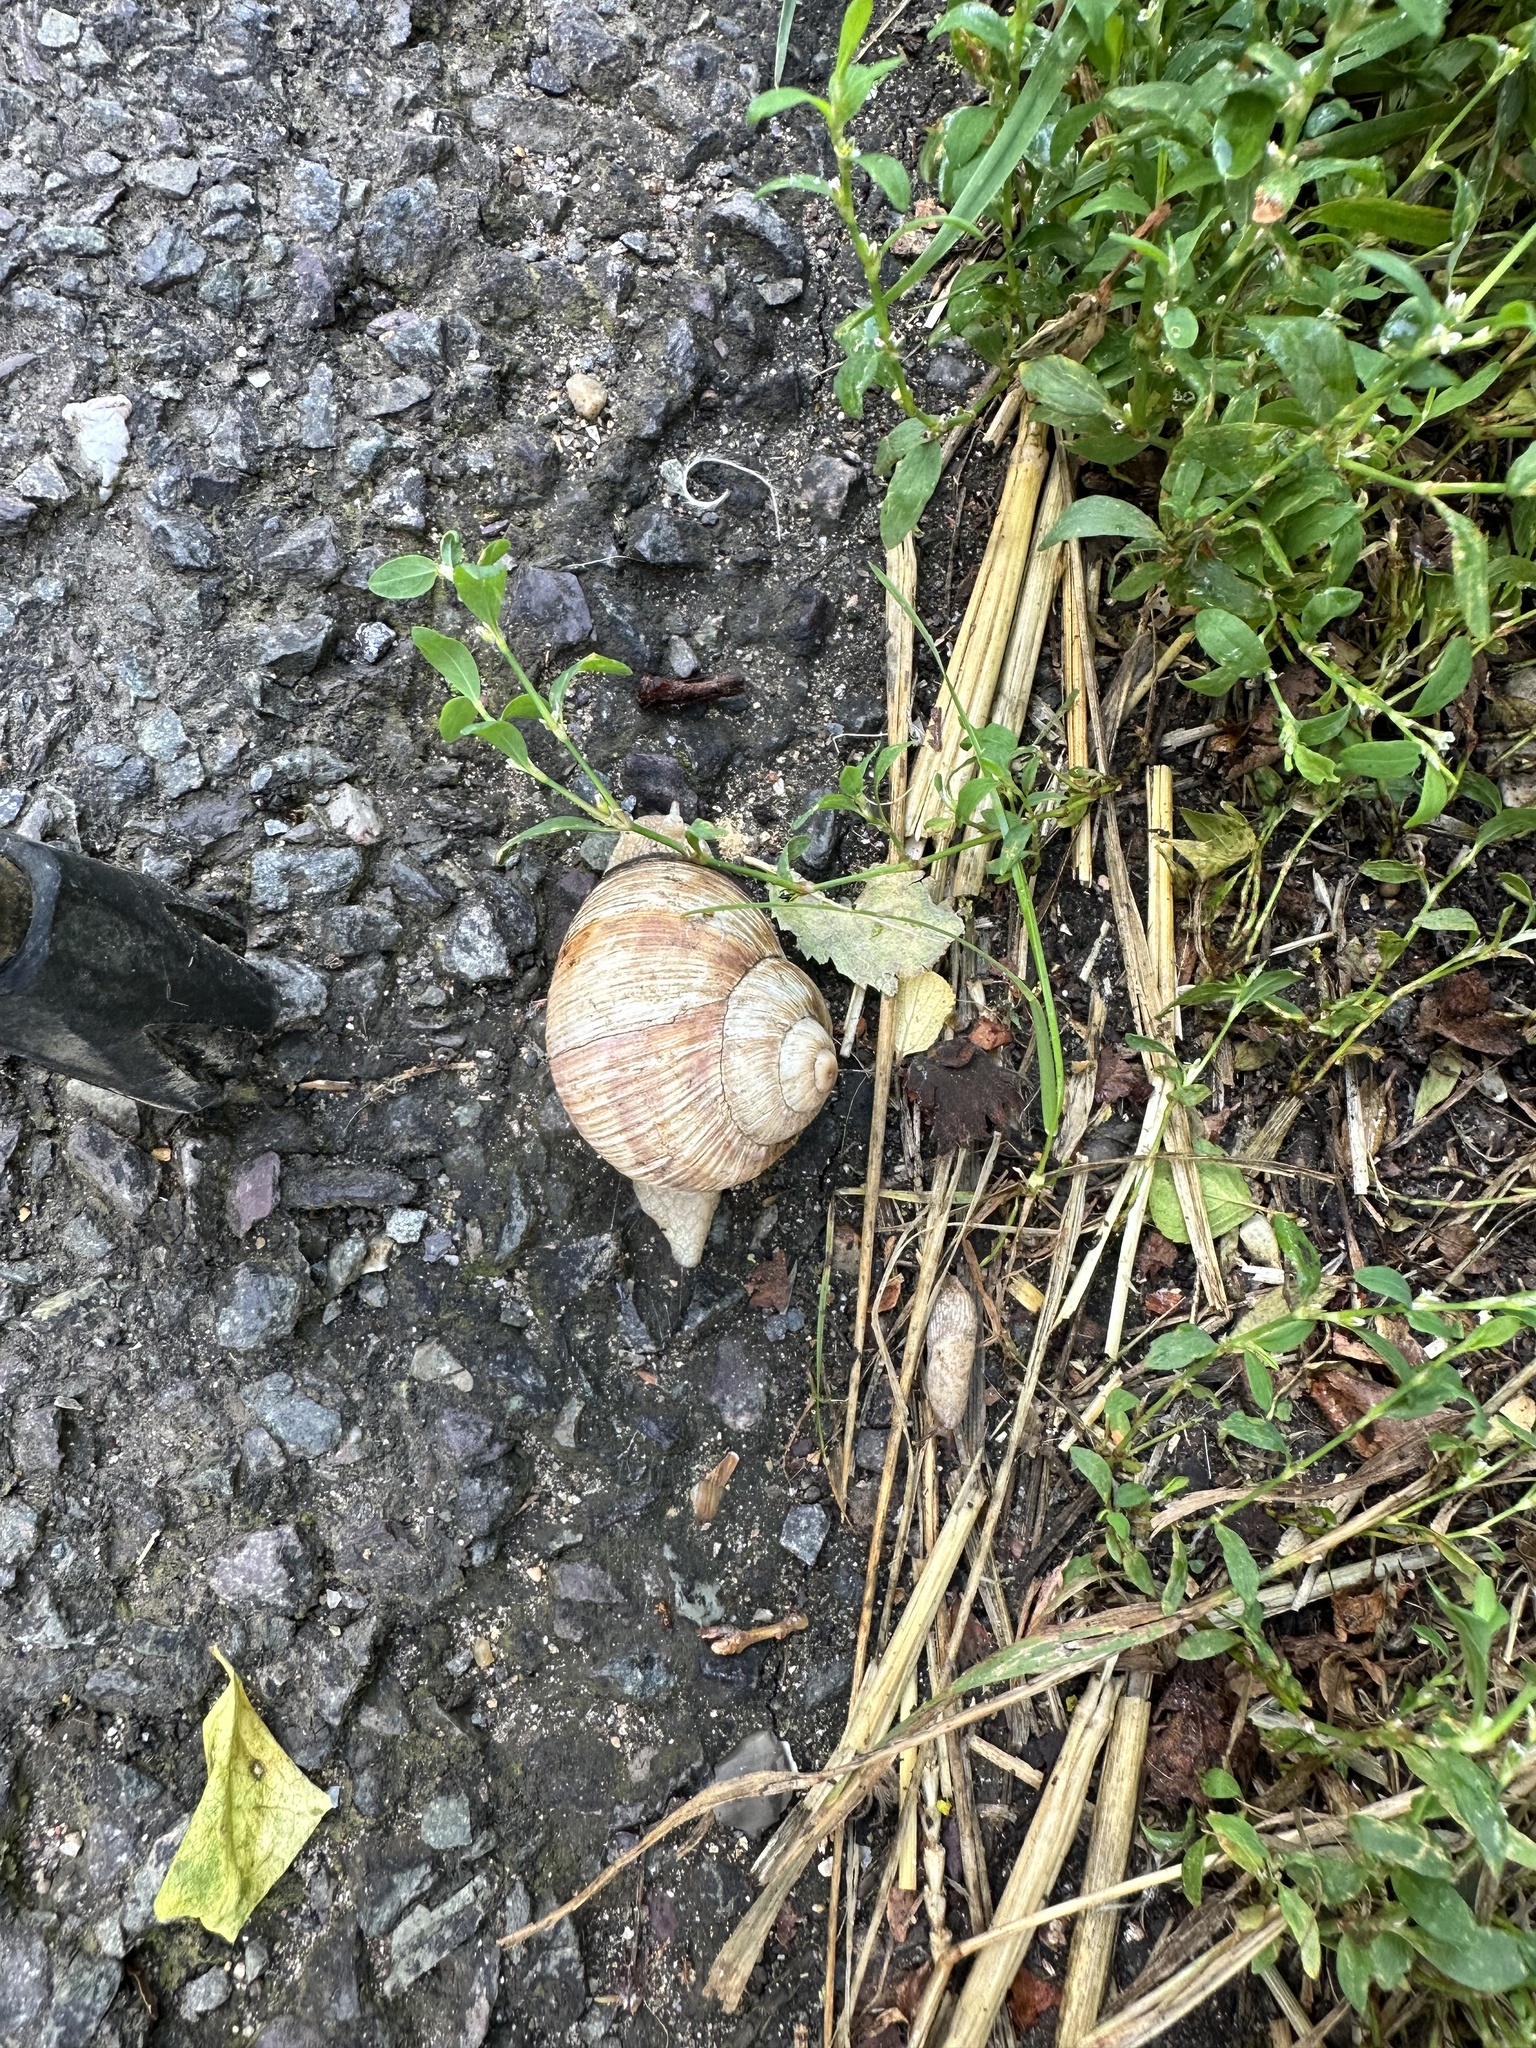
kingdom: Animalia
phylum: Mollusca
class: Gastropoda
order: Stylommatophora
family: Helicidae
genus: Helix
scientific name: Helix pomatia
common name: Roman snail
